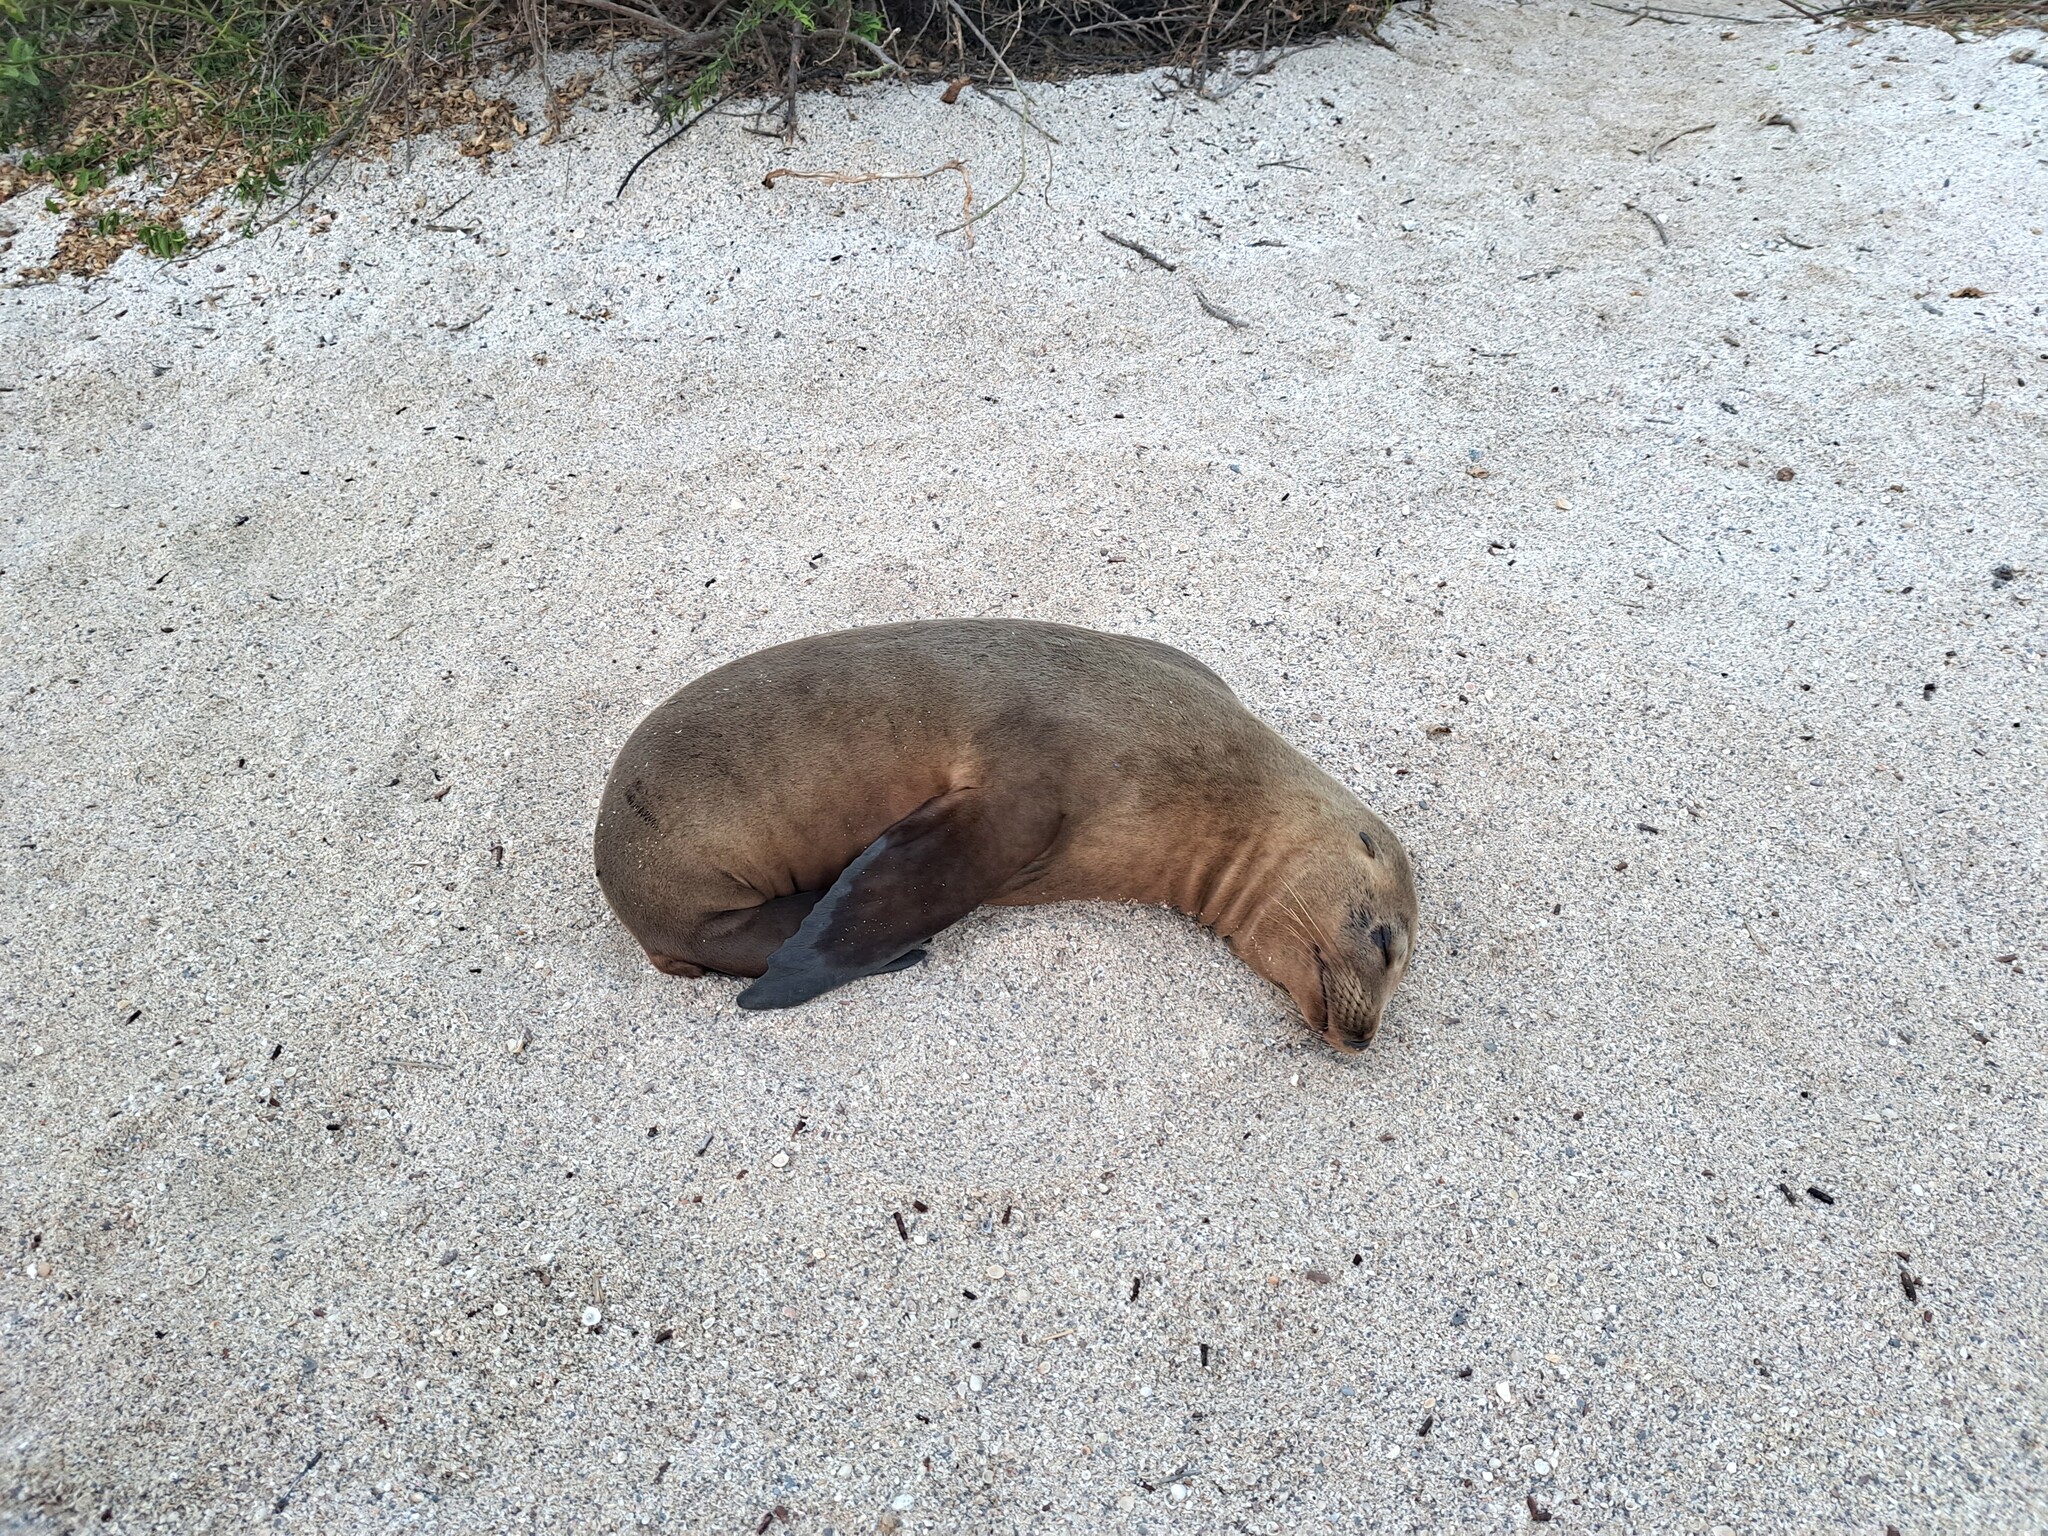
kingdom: Animalia
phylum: Chordata
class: Mammalia
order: Carnivora
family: Otariidae
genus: Zalophus
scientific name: Zalophus wollebaeki
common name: Galapagos sea lion
